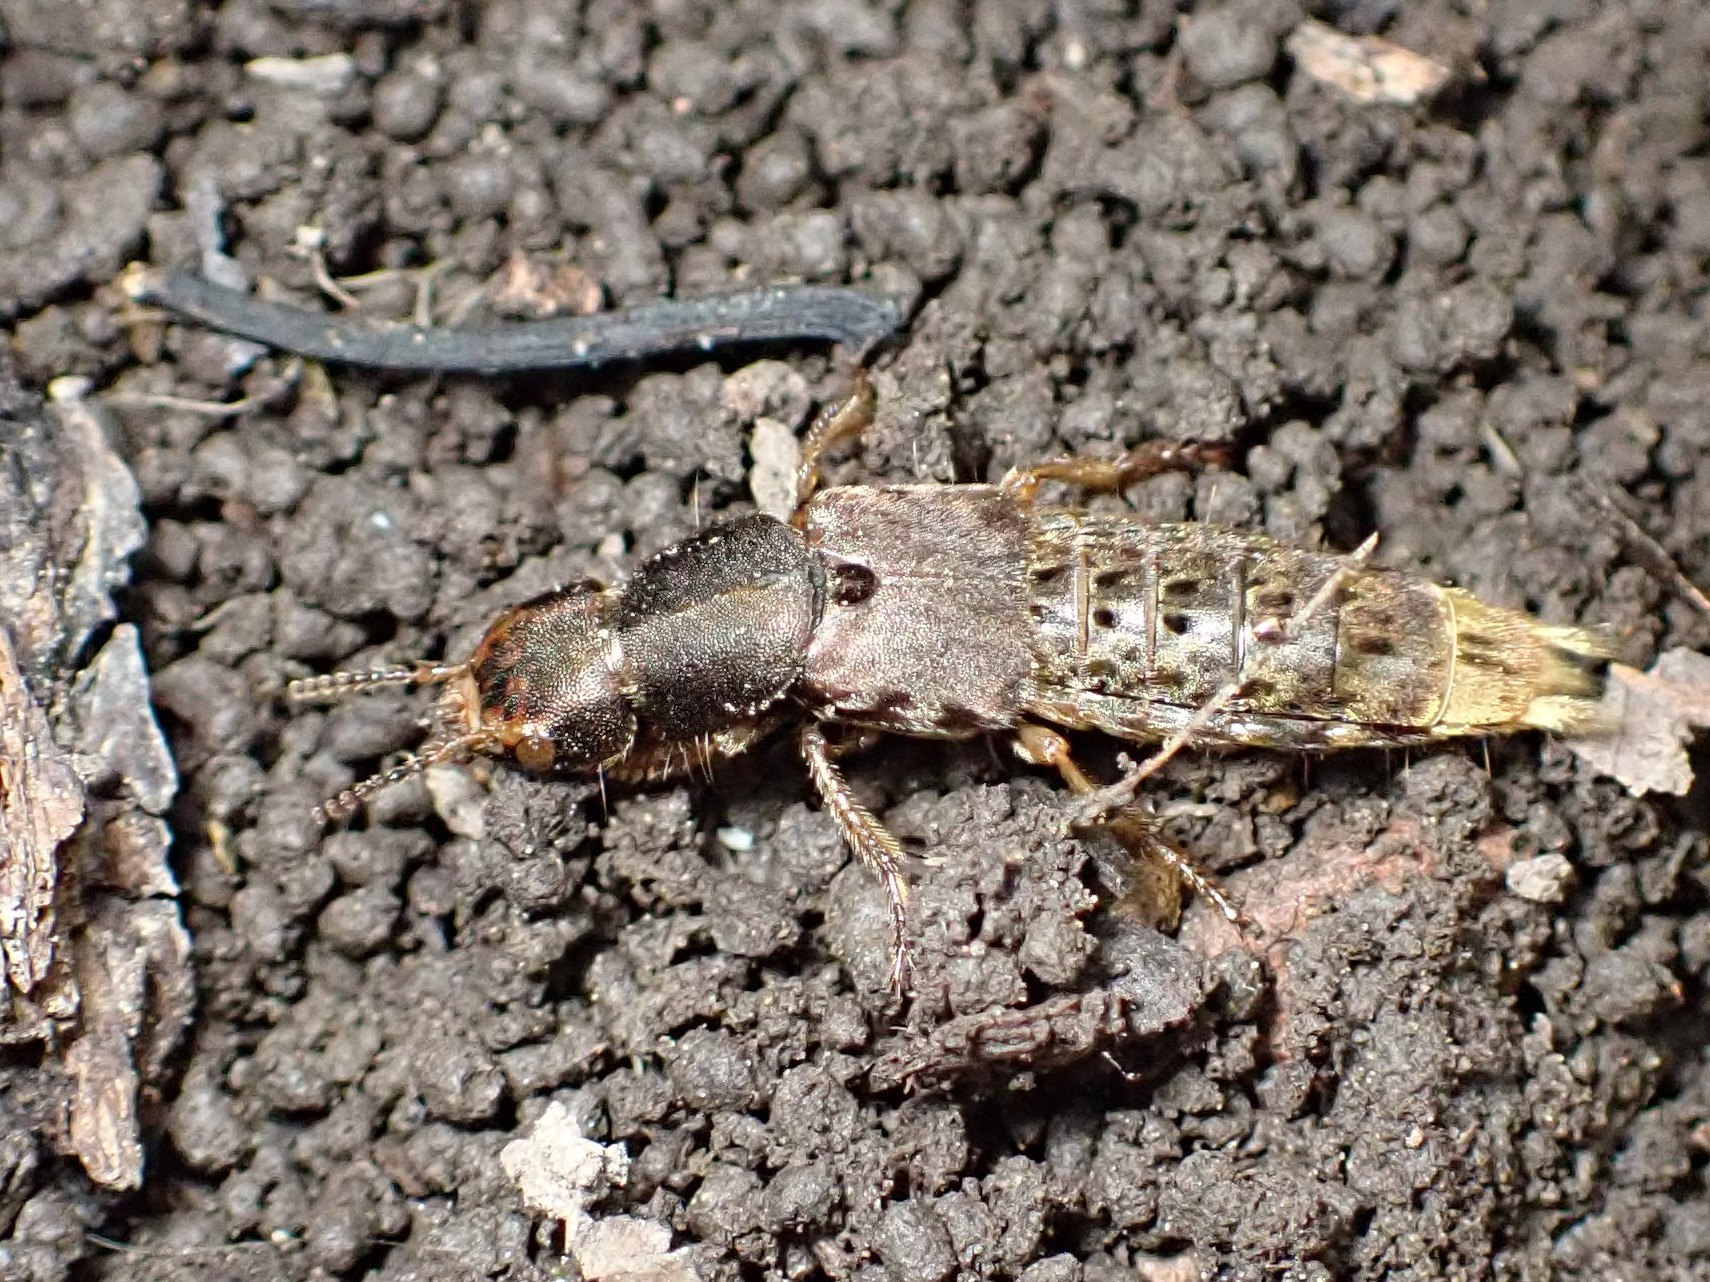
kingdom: Animalia
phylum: Arthropoda
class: Insecta
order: Coleoptera
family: Staphylinidae
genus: Platydracus
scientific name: Platydracus maculosus
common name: Brown rove beetle
